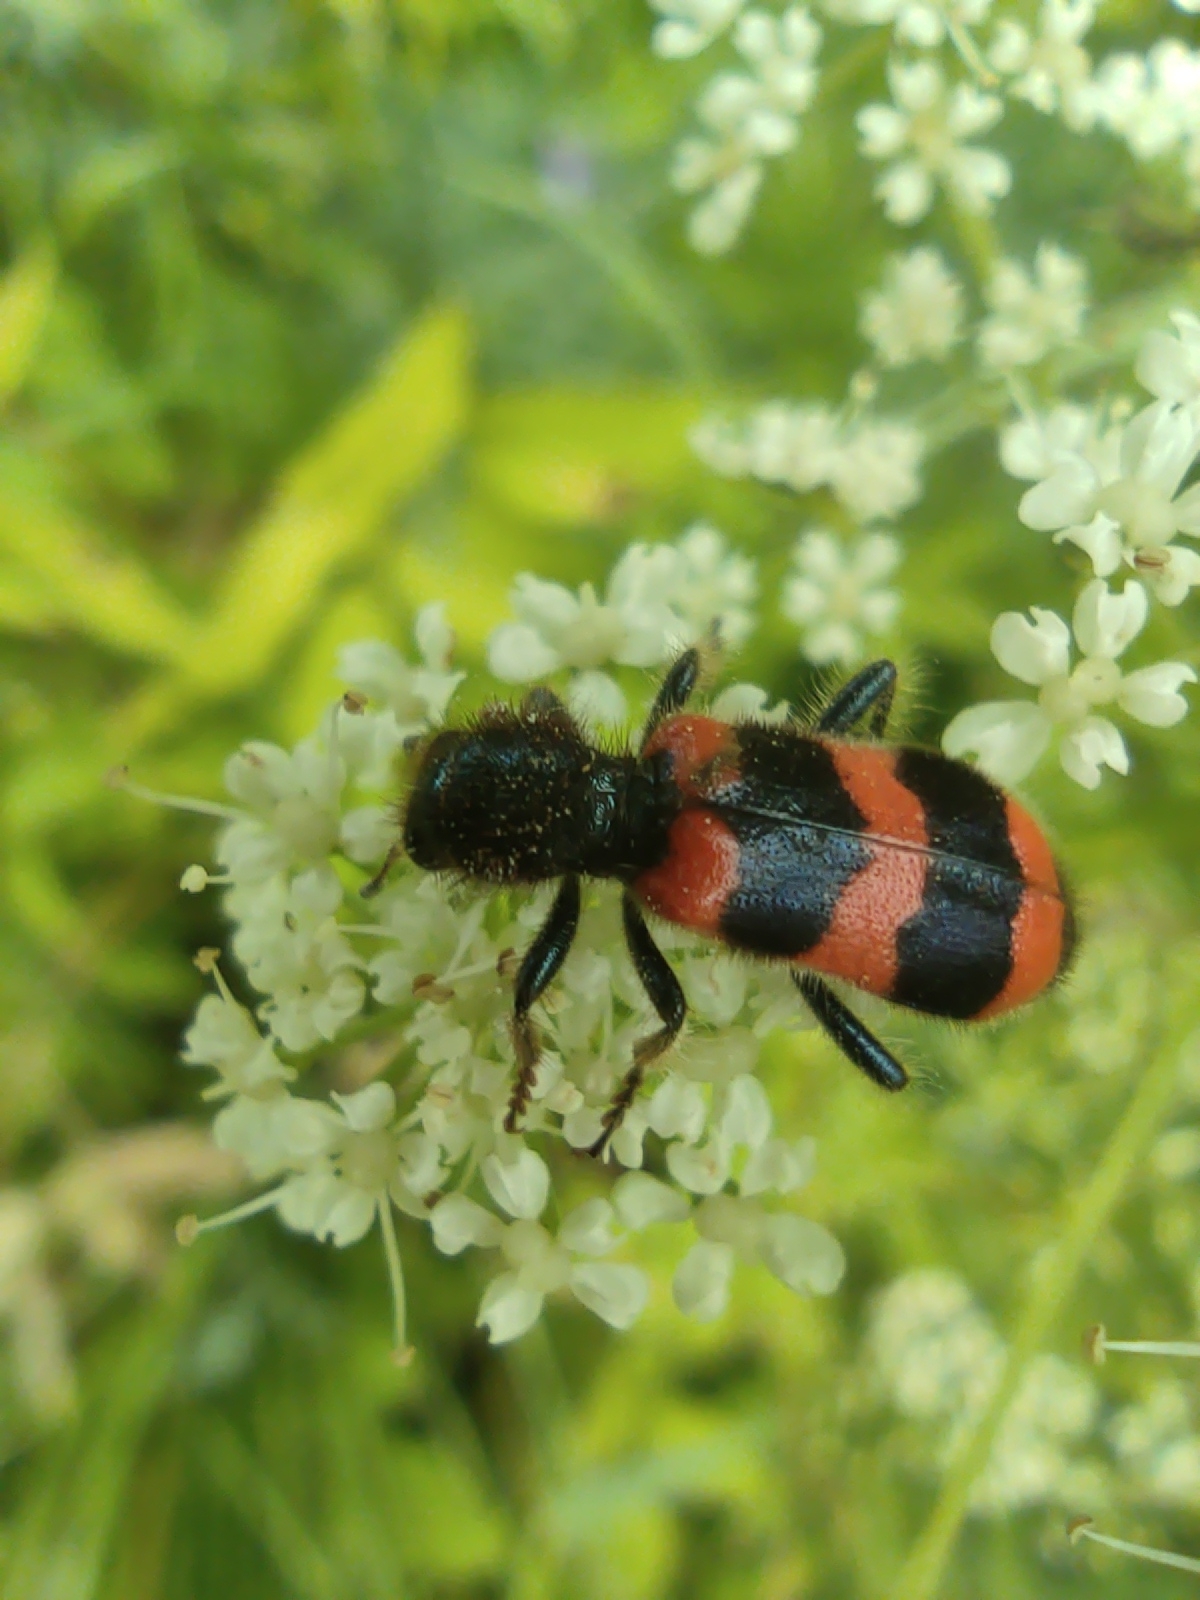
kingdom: Animalia
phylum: Arthropoda
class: Insecta
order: Coleoptera
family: Cleridae
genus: Trichodes
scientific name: Trichodes apiarius
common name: Bee-eating beetle
